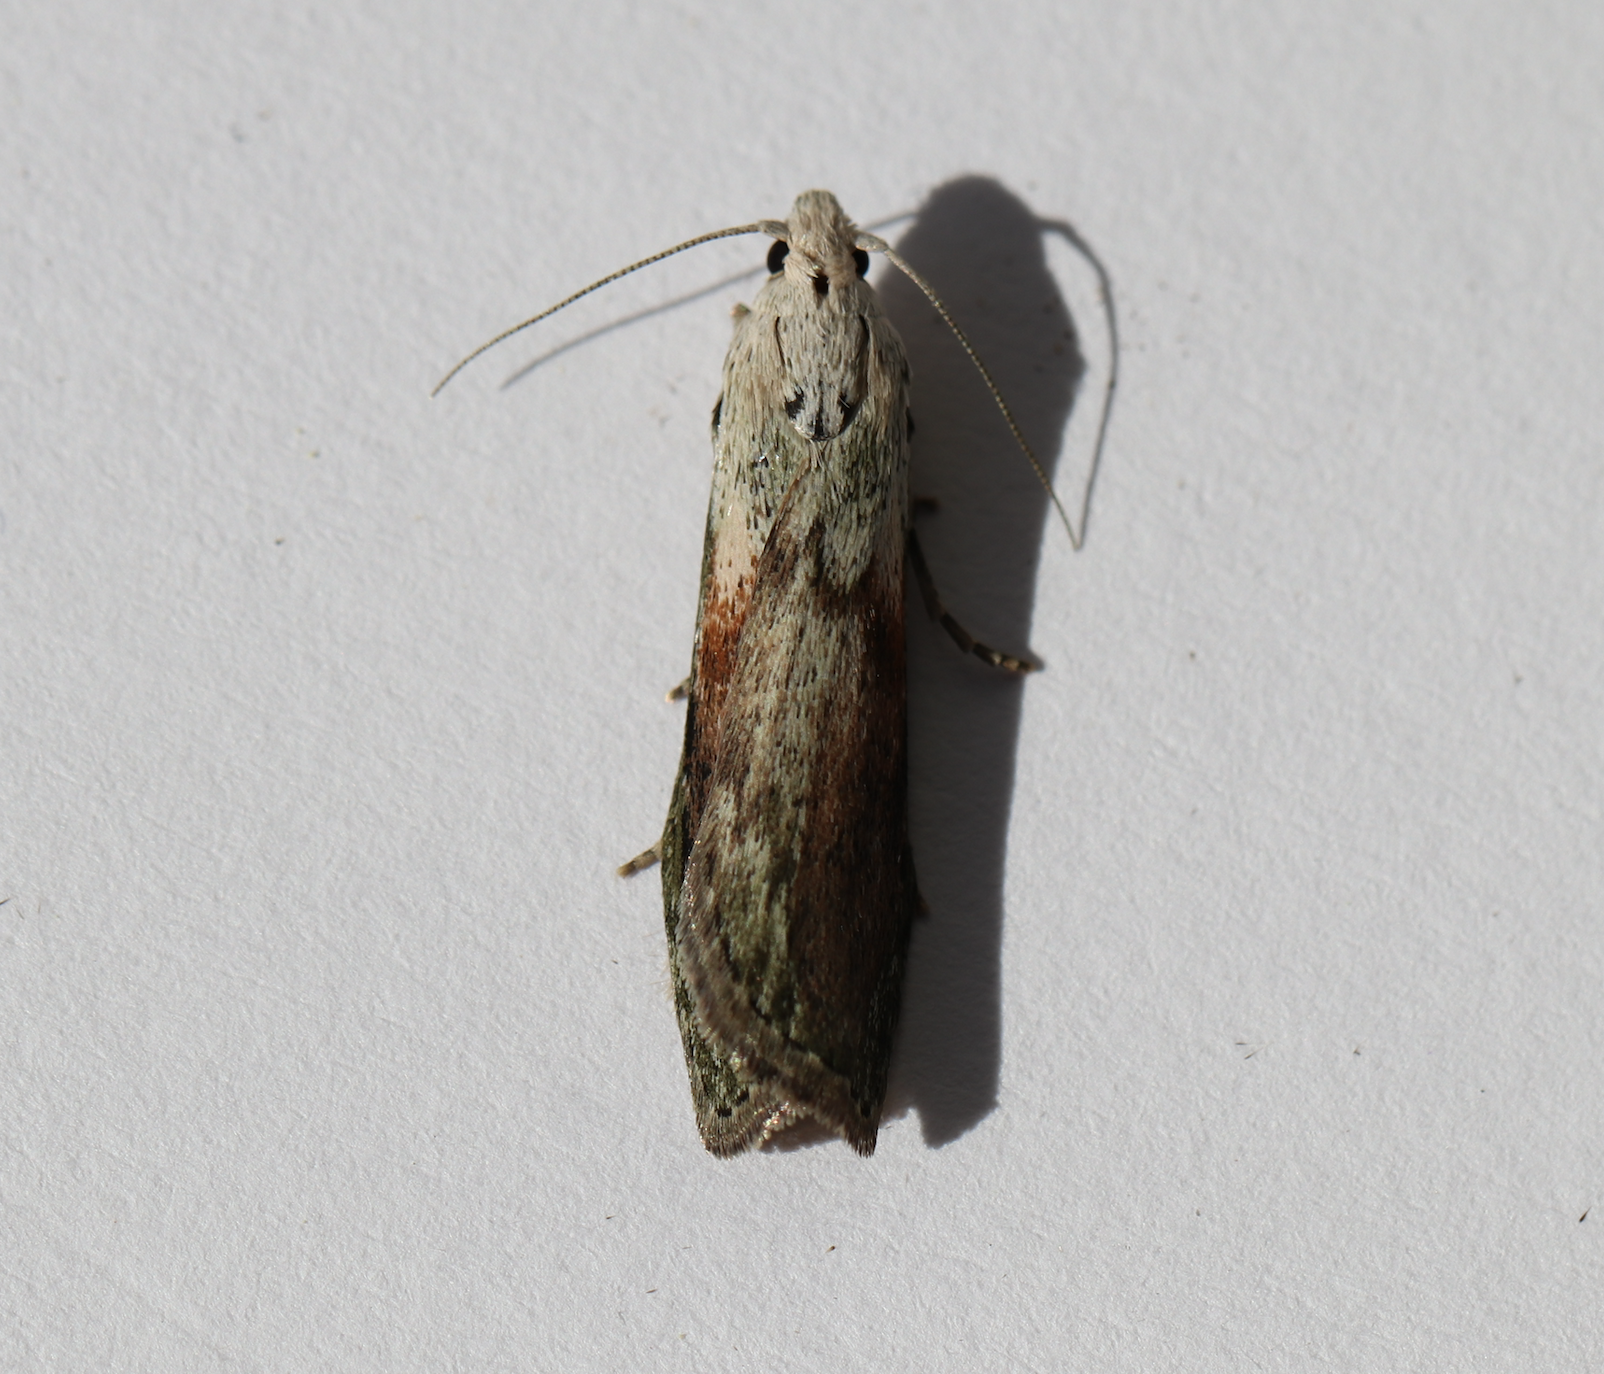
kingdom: Animalia
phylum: Arthropoda
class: Insecta
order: Lepidoptera
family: Pyralidae
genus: Aphomia
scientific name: Aphomia sociella
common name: Bee moth
